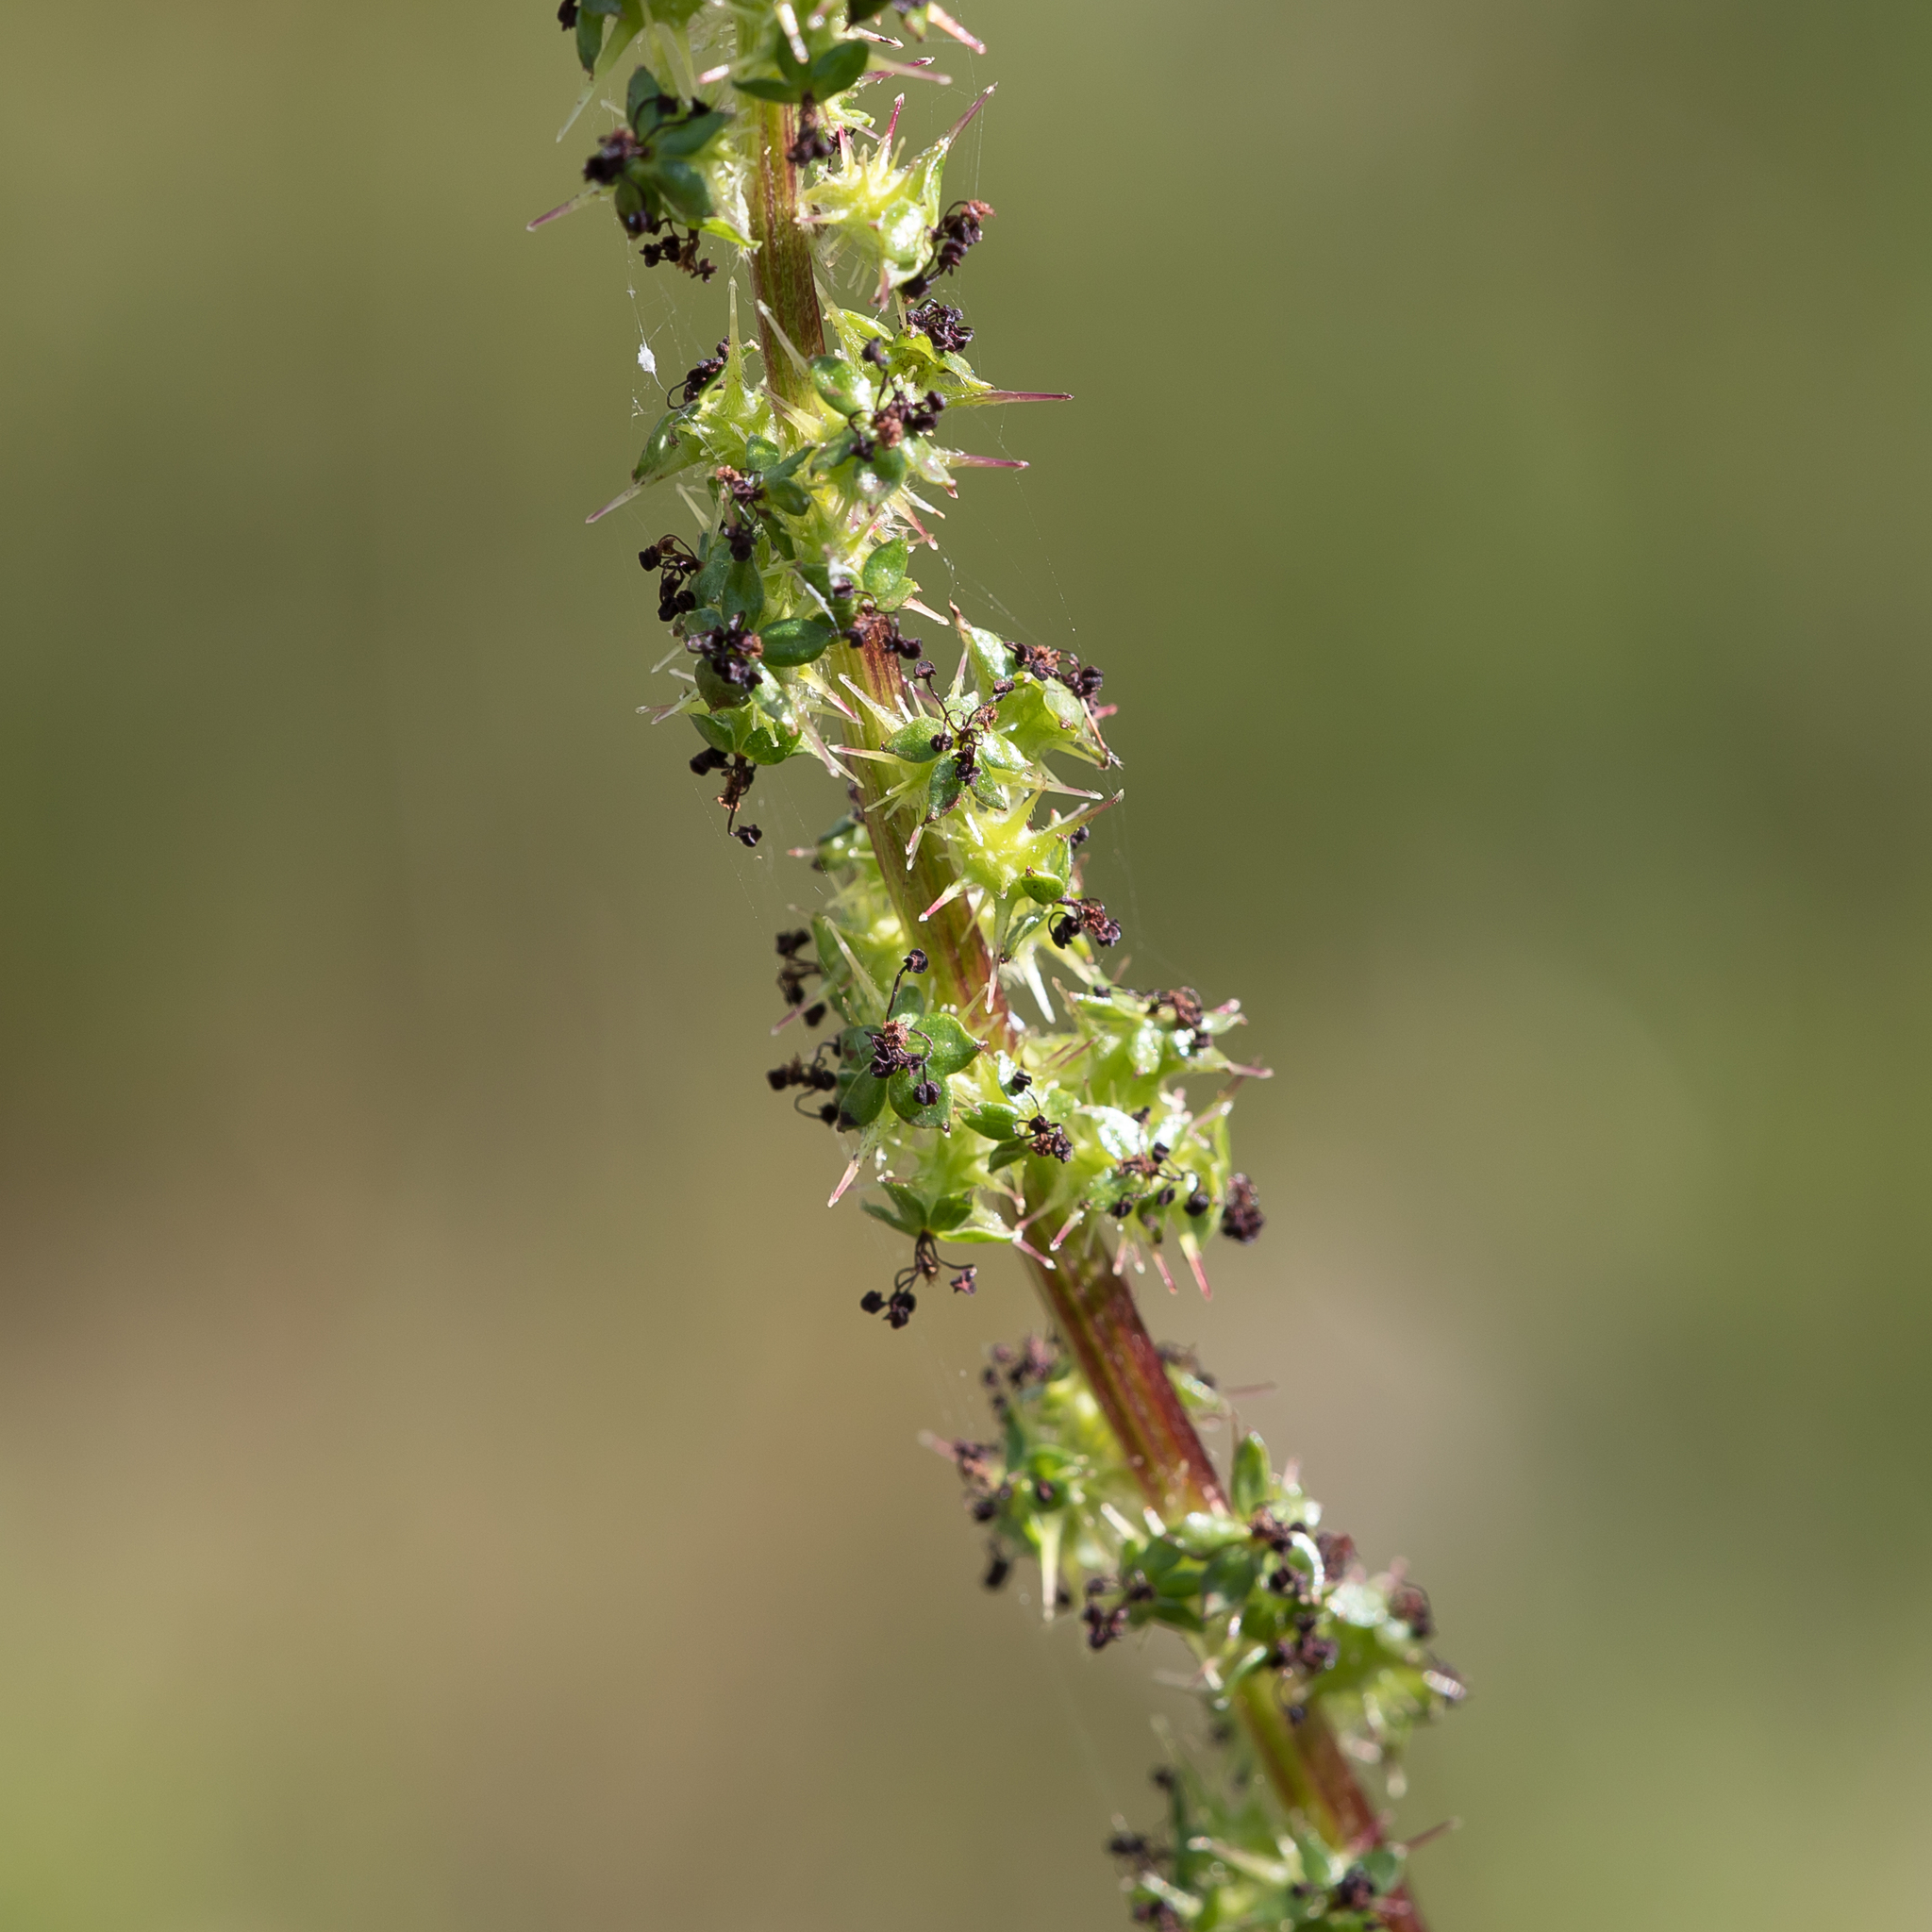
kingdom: Plantae
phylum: Tracheophyta
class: Magnoliopsida
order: Rosales
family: Rosaceae
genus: Acaena
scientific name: Acaena echinata
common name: Sheepbur
